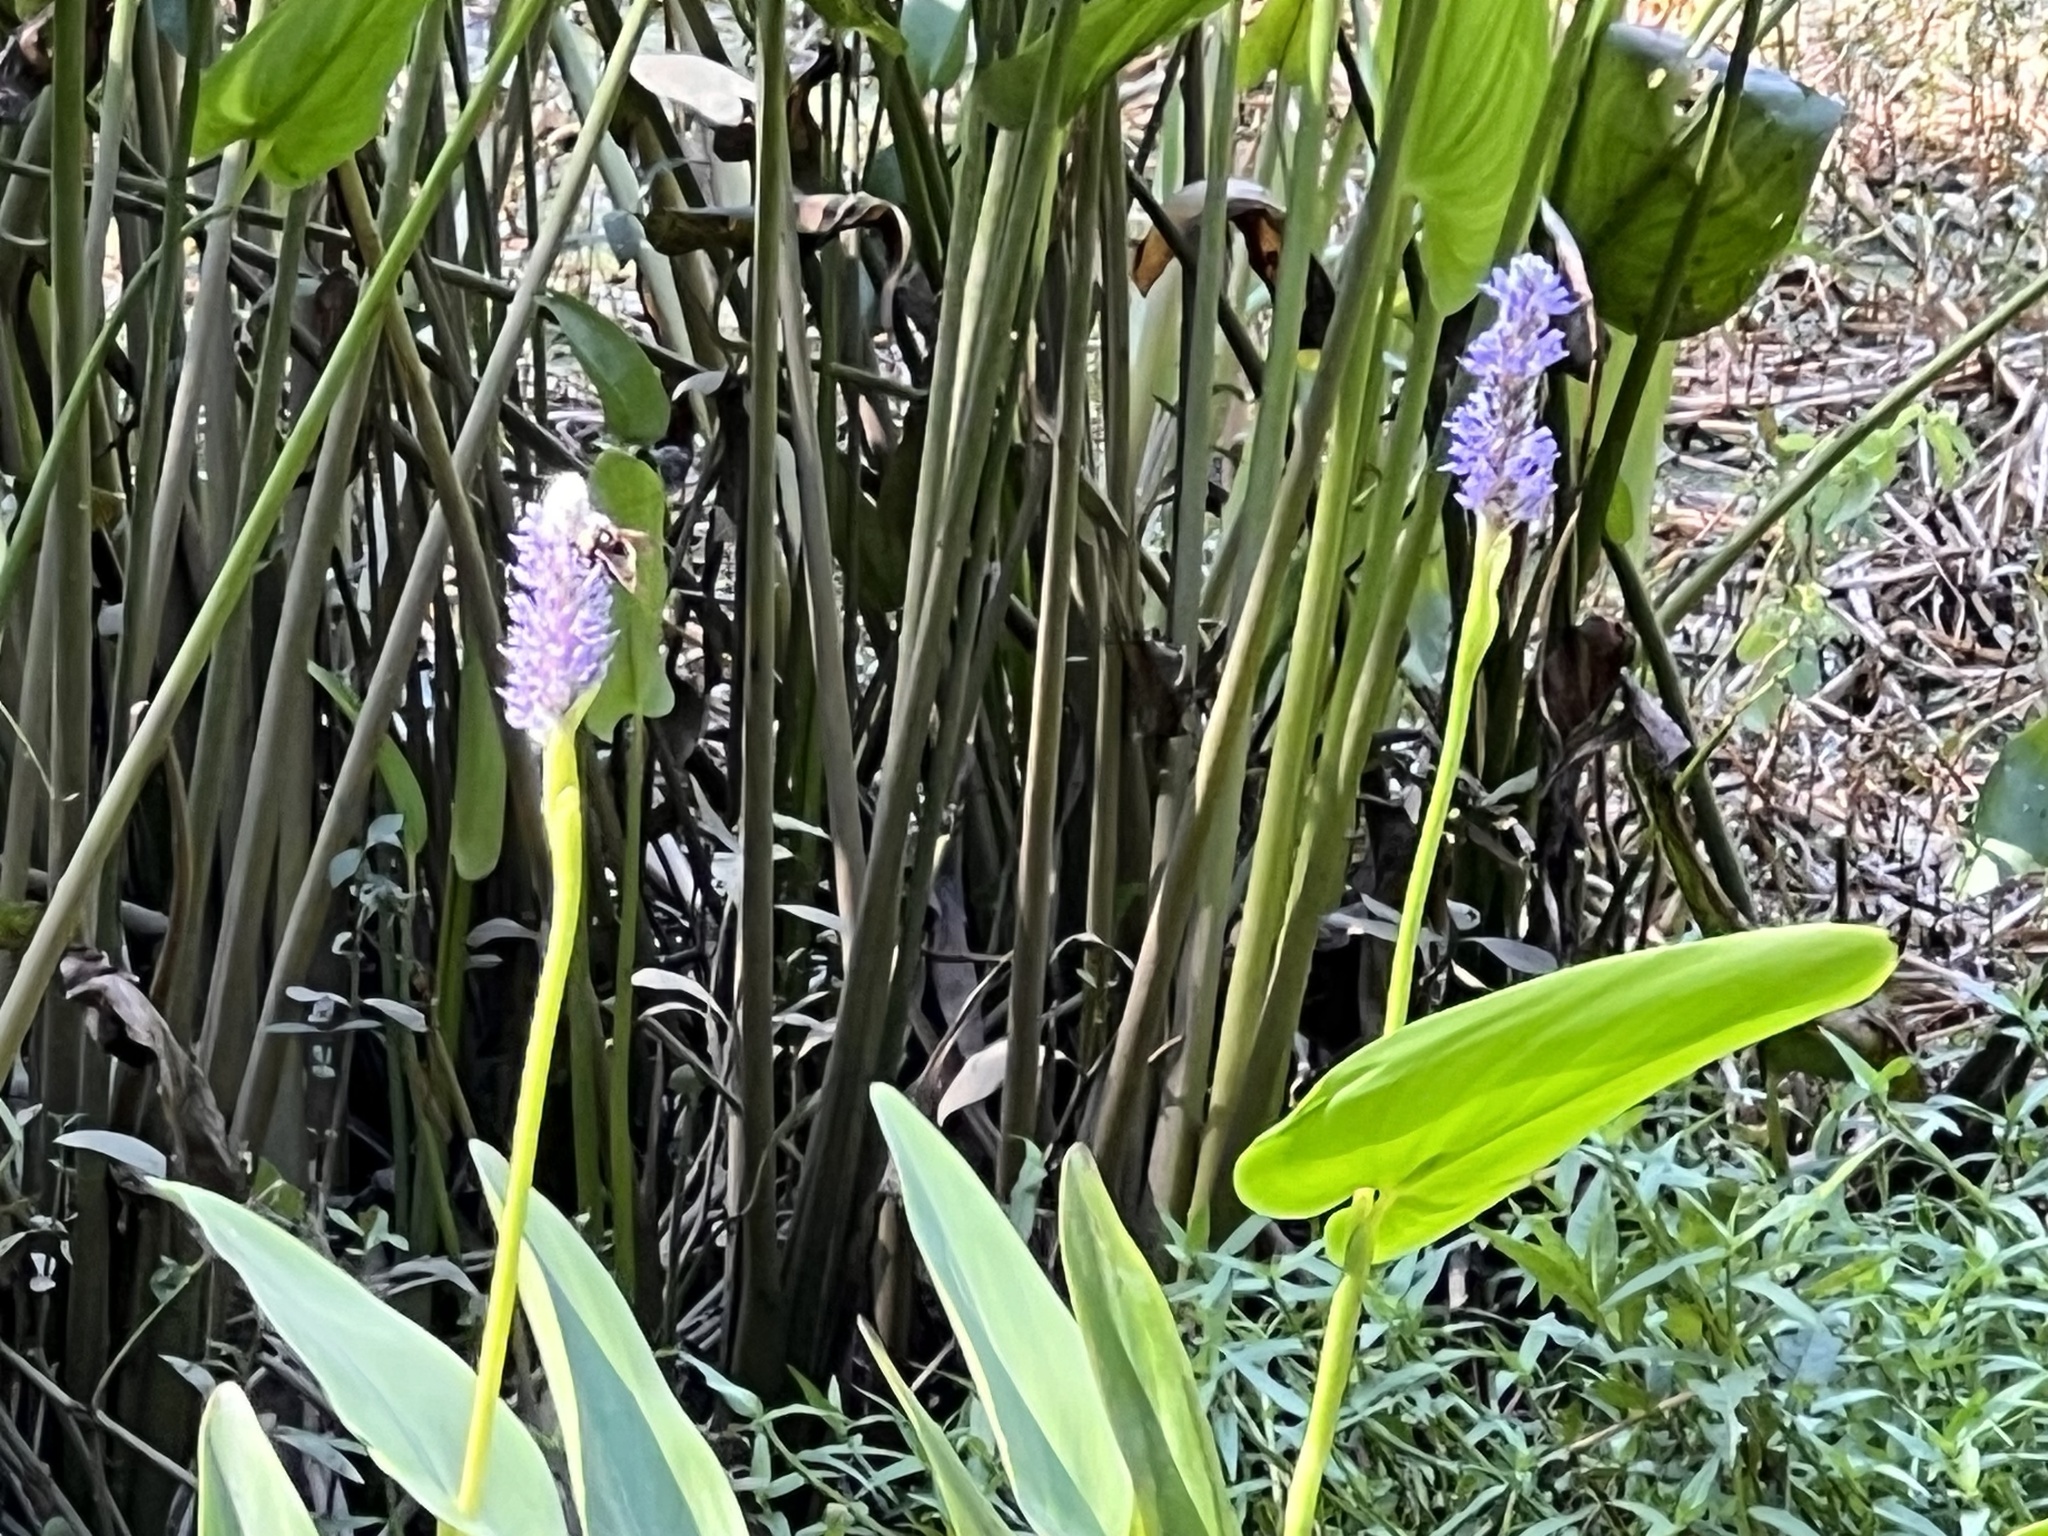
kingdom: Plantae
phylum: Tracheophyta
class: Liliopsida
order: Commelinales
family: Pontederiaceae
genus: Pontederia
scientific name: Pontederia cordata
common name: Pickerelweed
